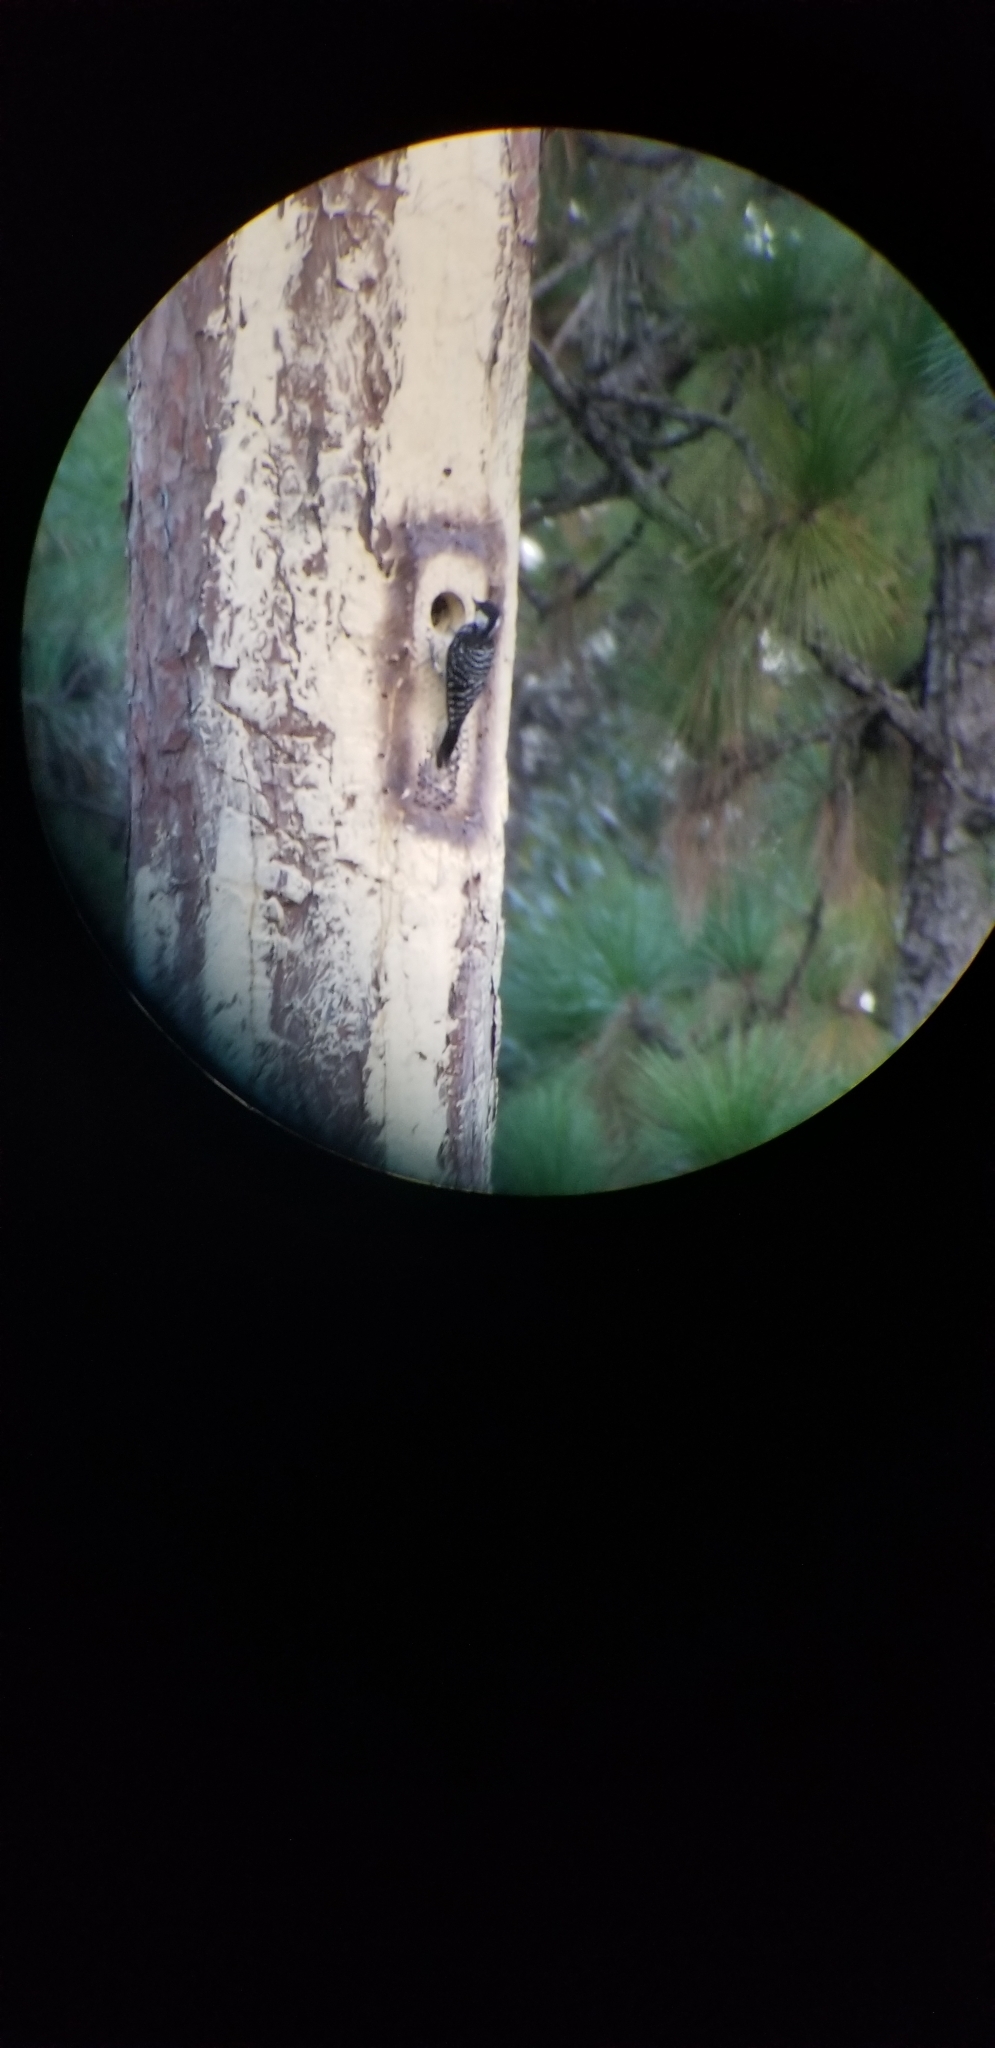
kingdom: Animalia
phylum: Chordata
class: Aves
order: Piciformes
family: Picidae
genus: Leuconotopicus
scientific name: Leuconotopicus borealis
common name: Red-cockaded woodpecker
